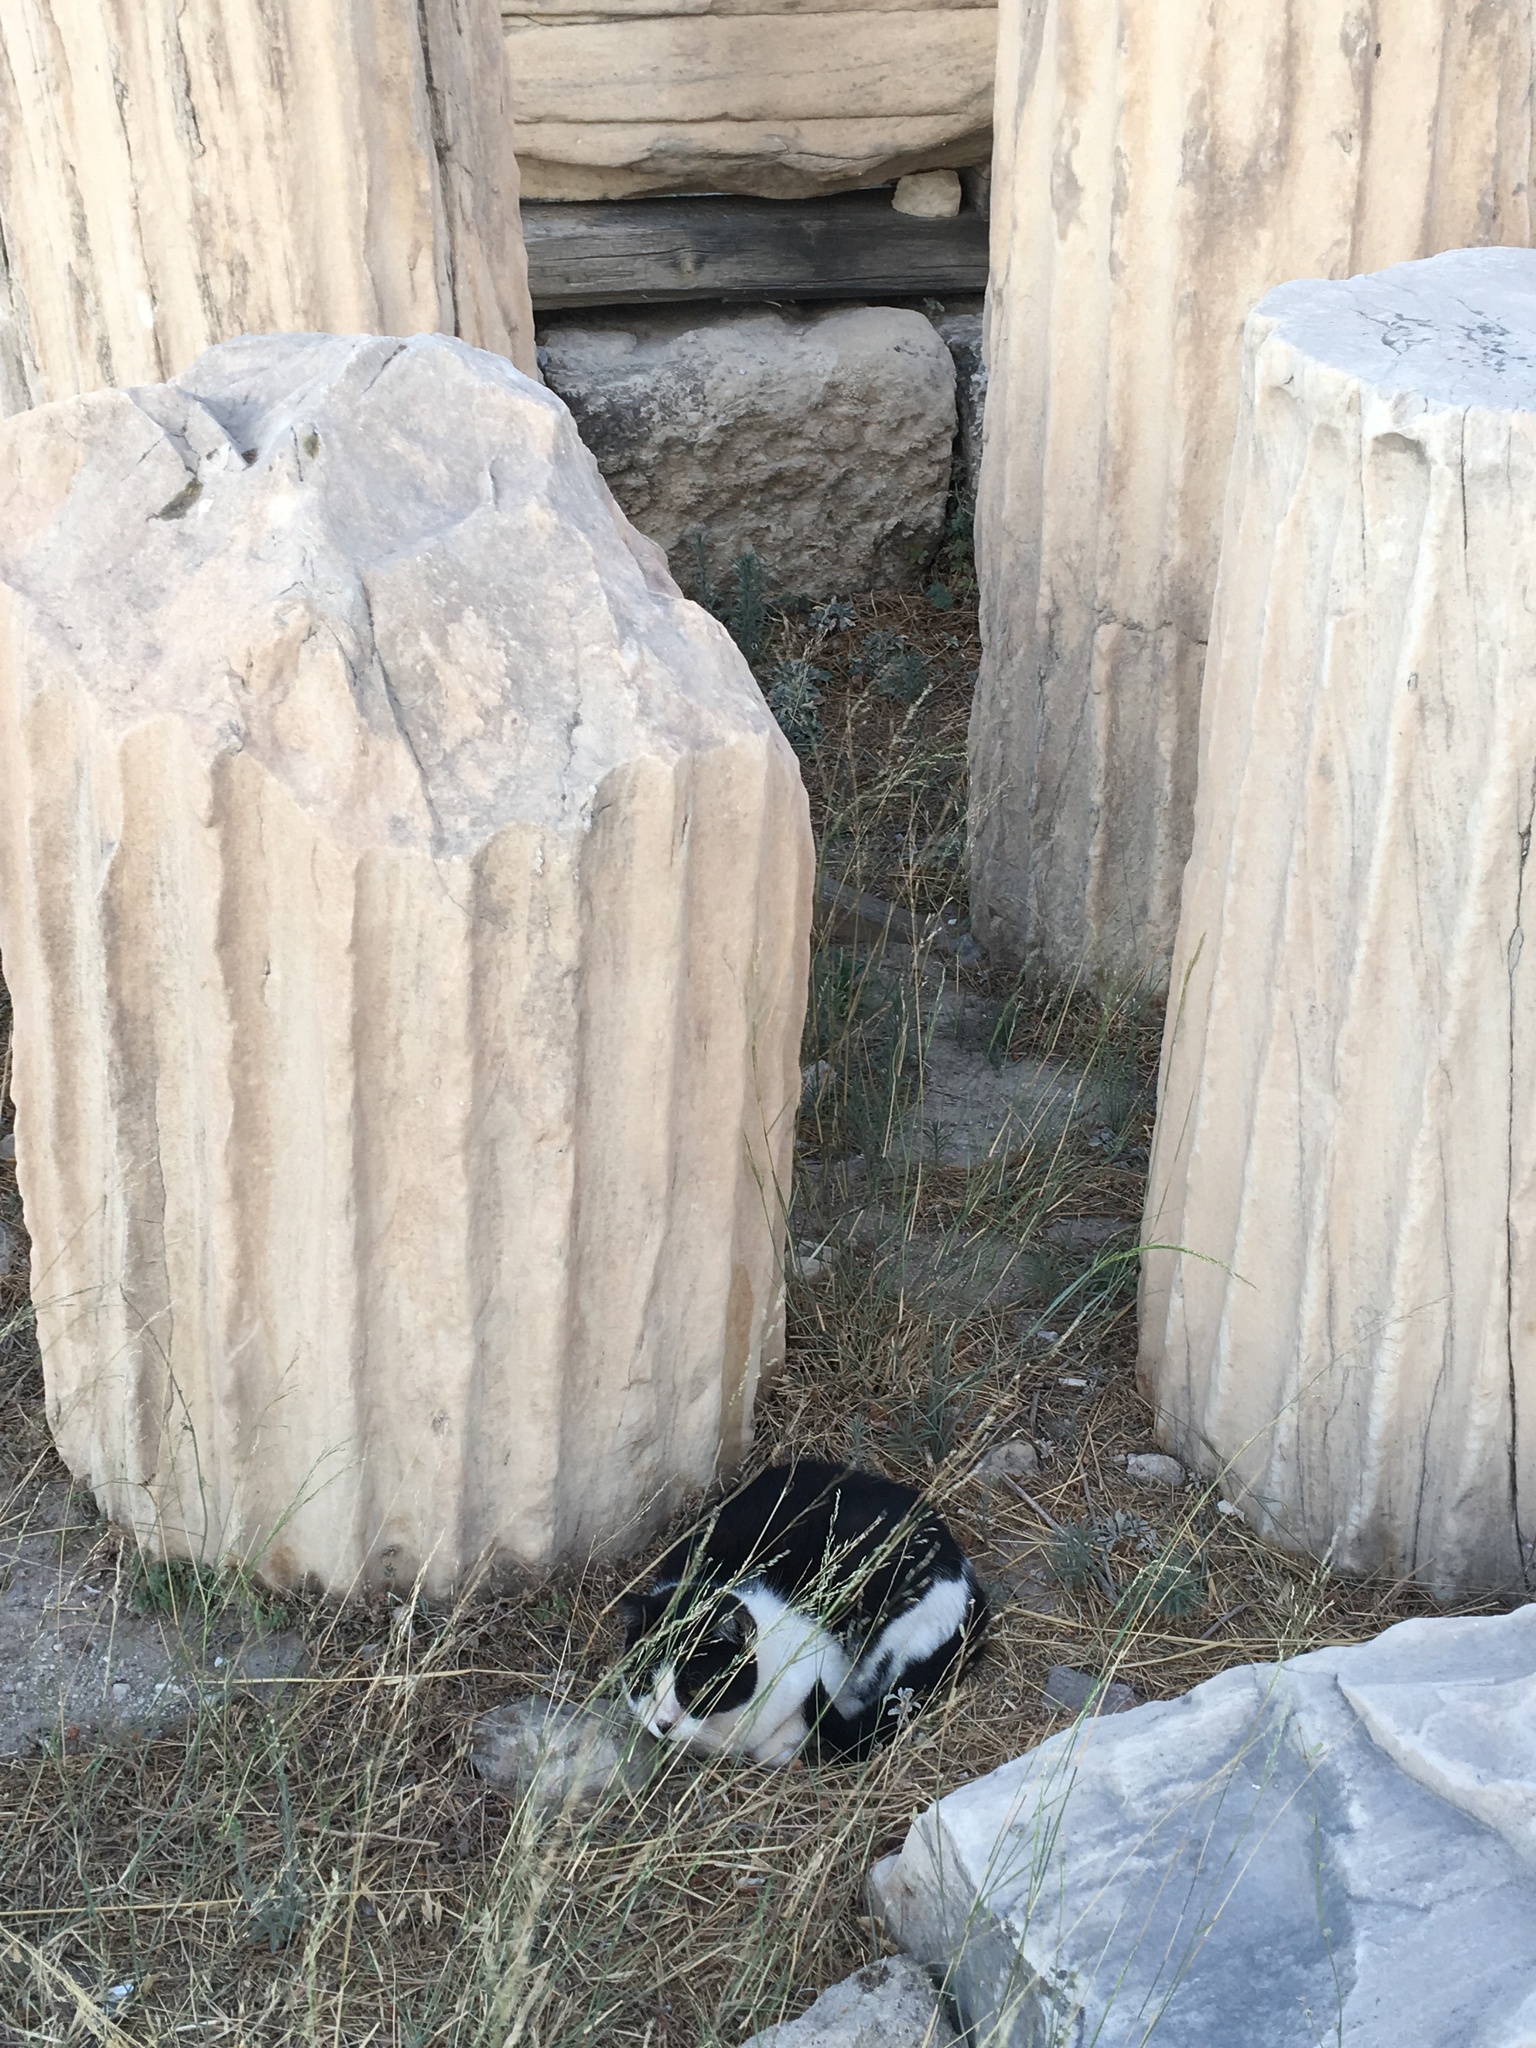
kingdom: Animalia
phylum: Chordata
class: Mammalia
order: Carnivora
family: Felidae
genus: Felis
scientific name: Felis catus
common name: Domestic cat
